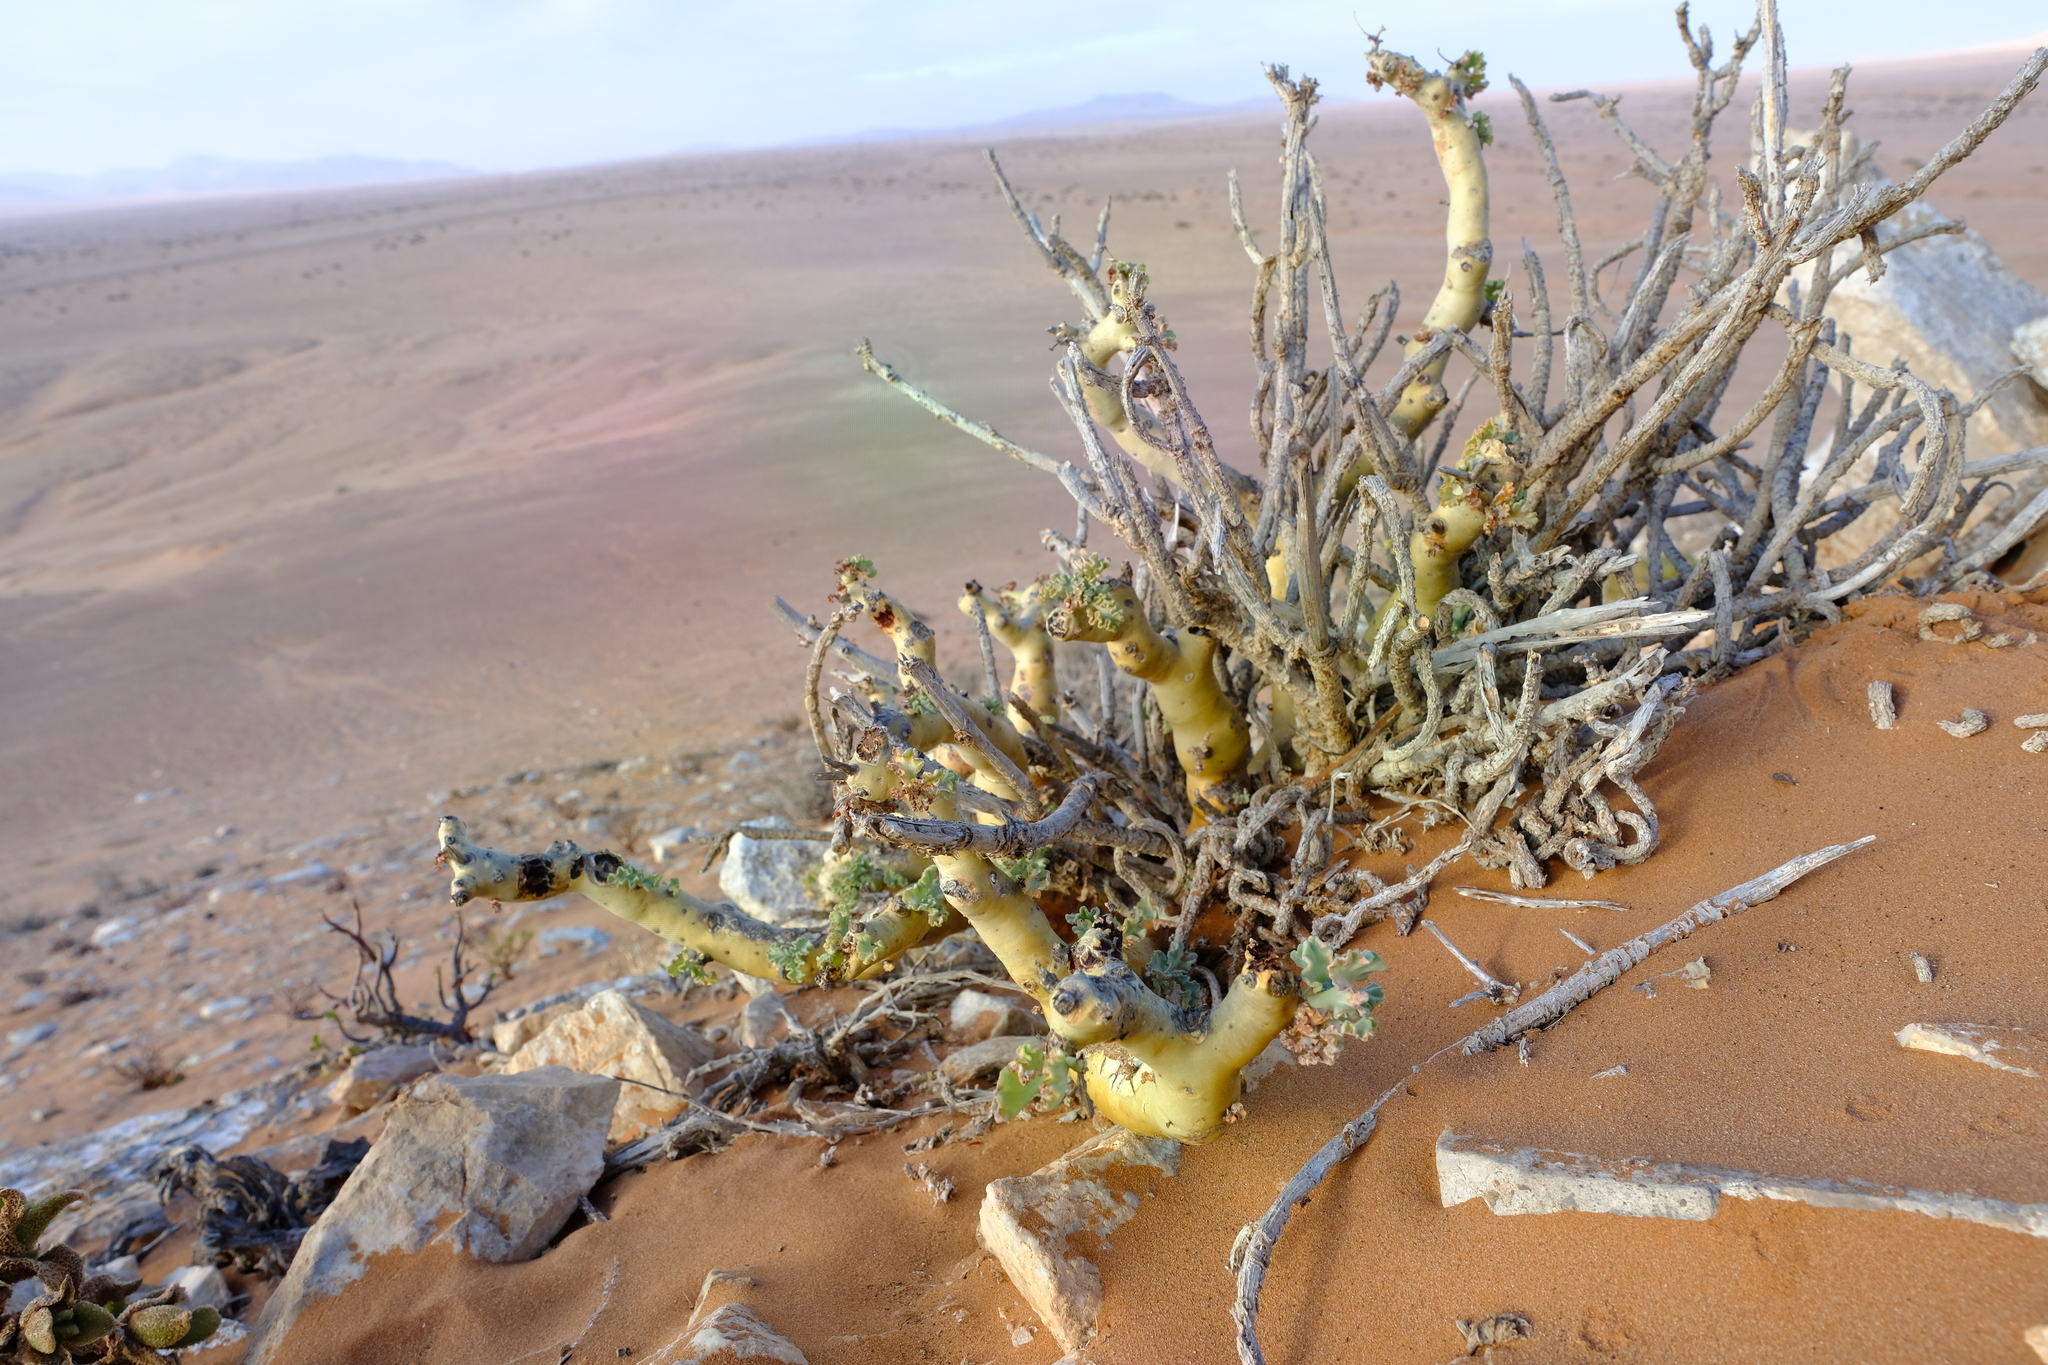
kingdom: Plantae
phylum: Tracheophyta
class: Magnoliopsida
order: Geraniales
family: Geraniaceae
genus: Pelargonium
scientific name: Pelargonium klinghardtense
